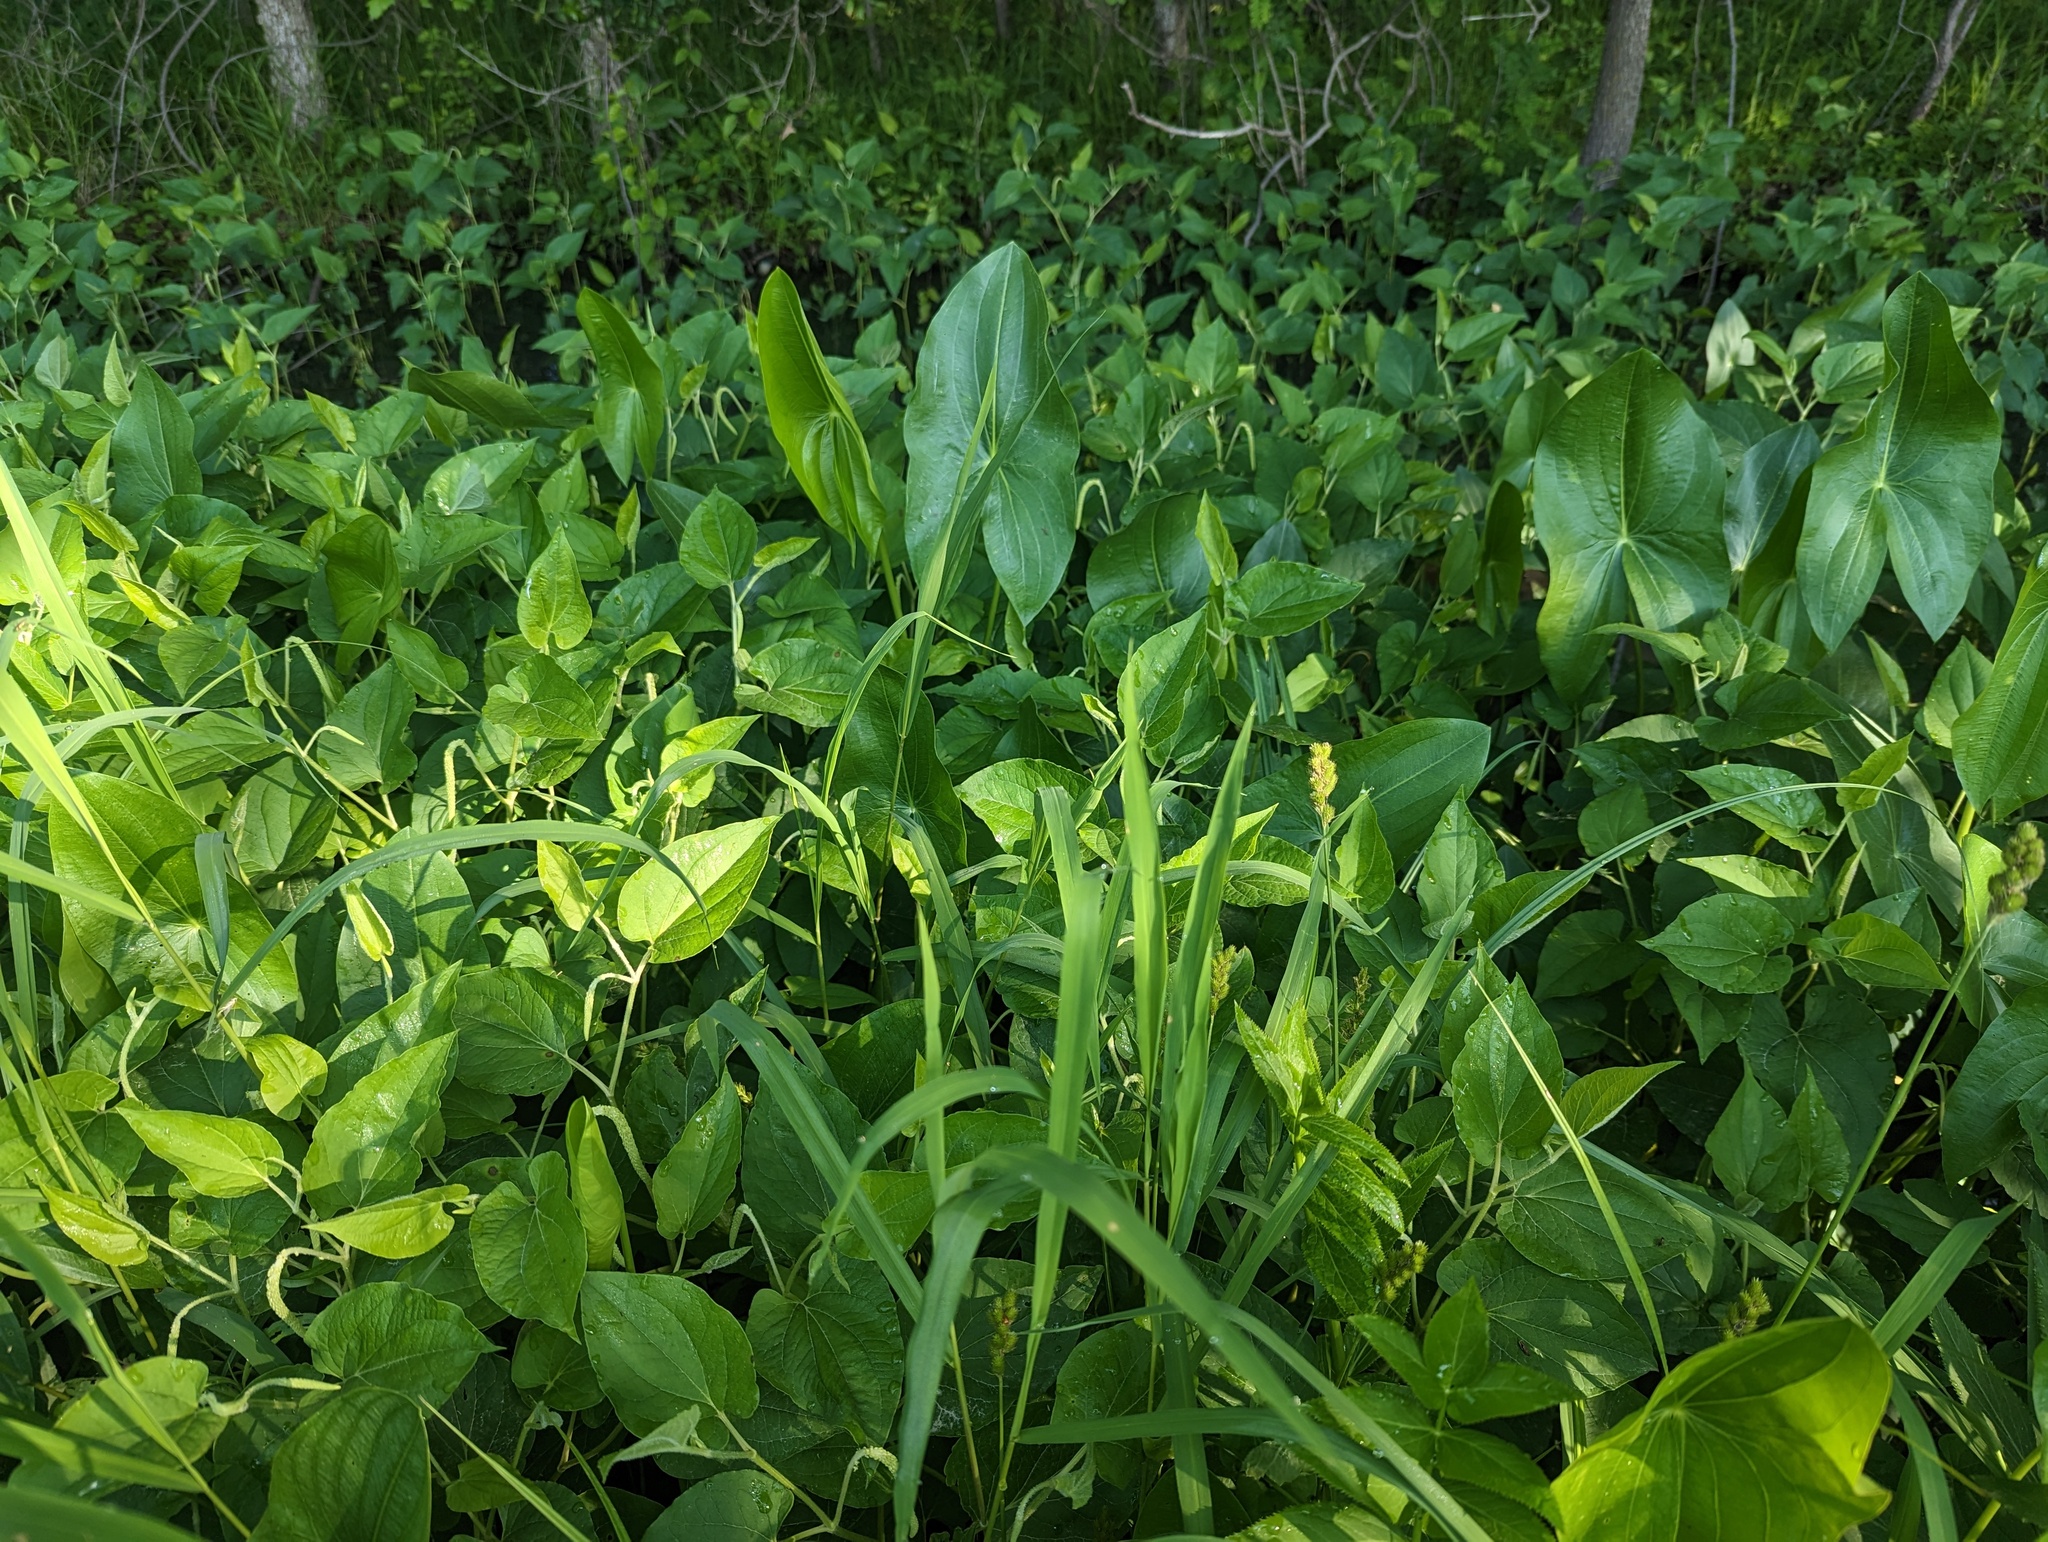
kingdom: Plantae
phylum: Tracheophyta
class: Magnoliopsida
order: Piperales
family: Saururaceae
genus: Saururus
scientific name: Saururus cernuus
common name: Lizard's-tail
